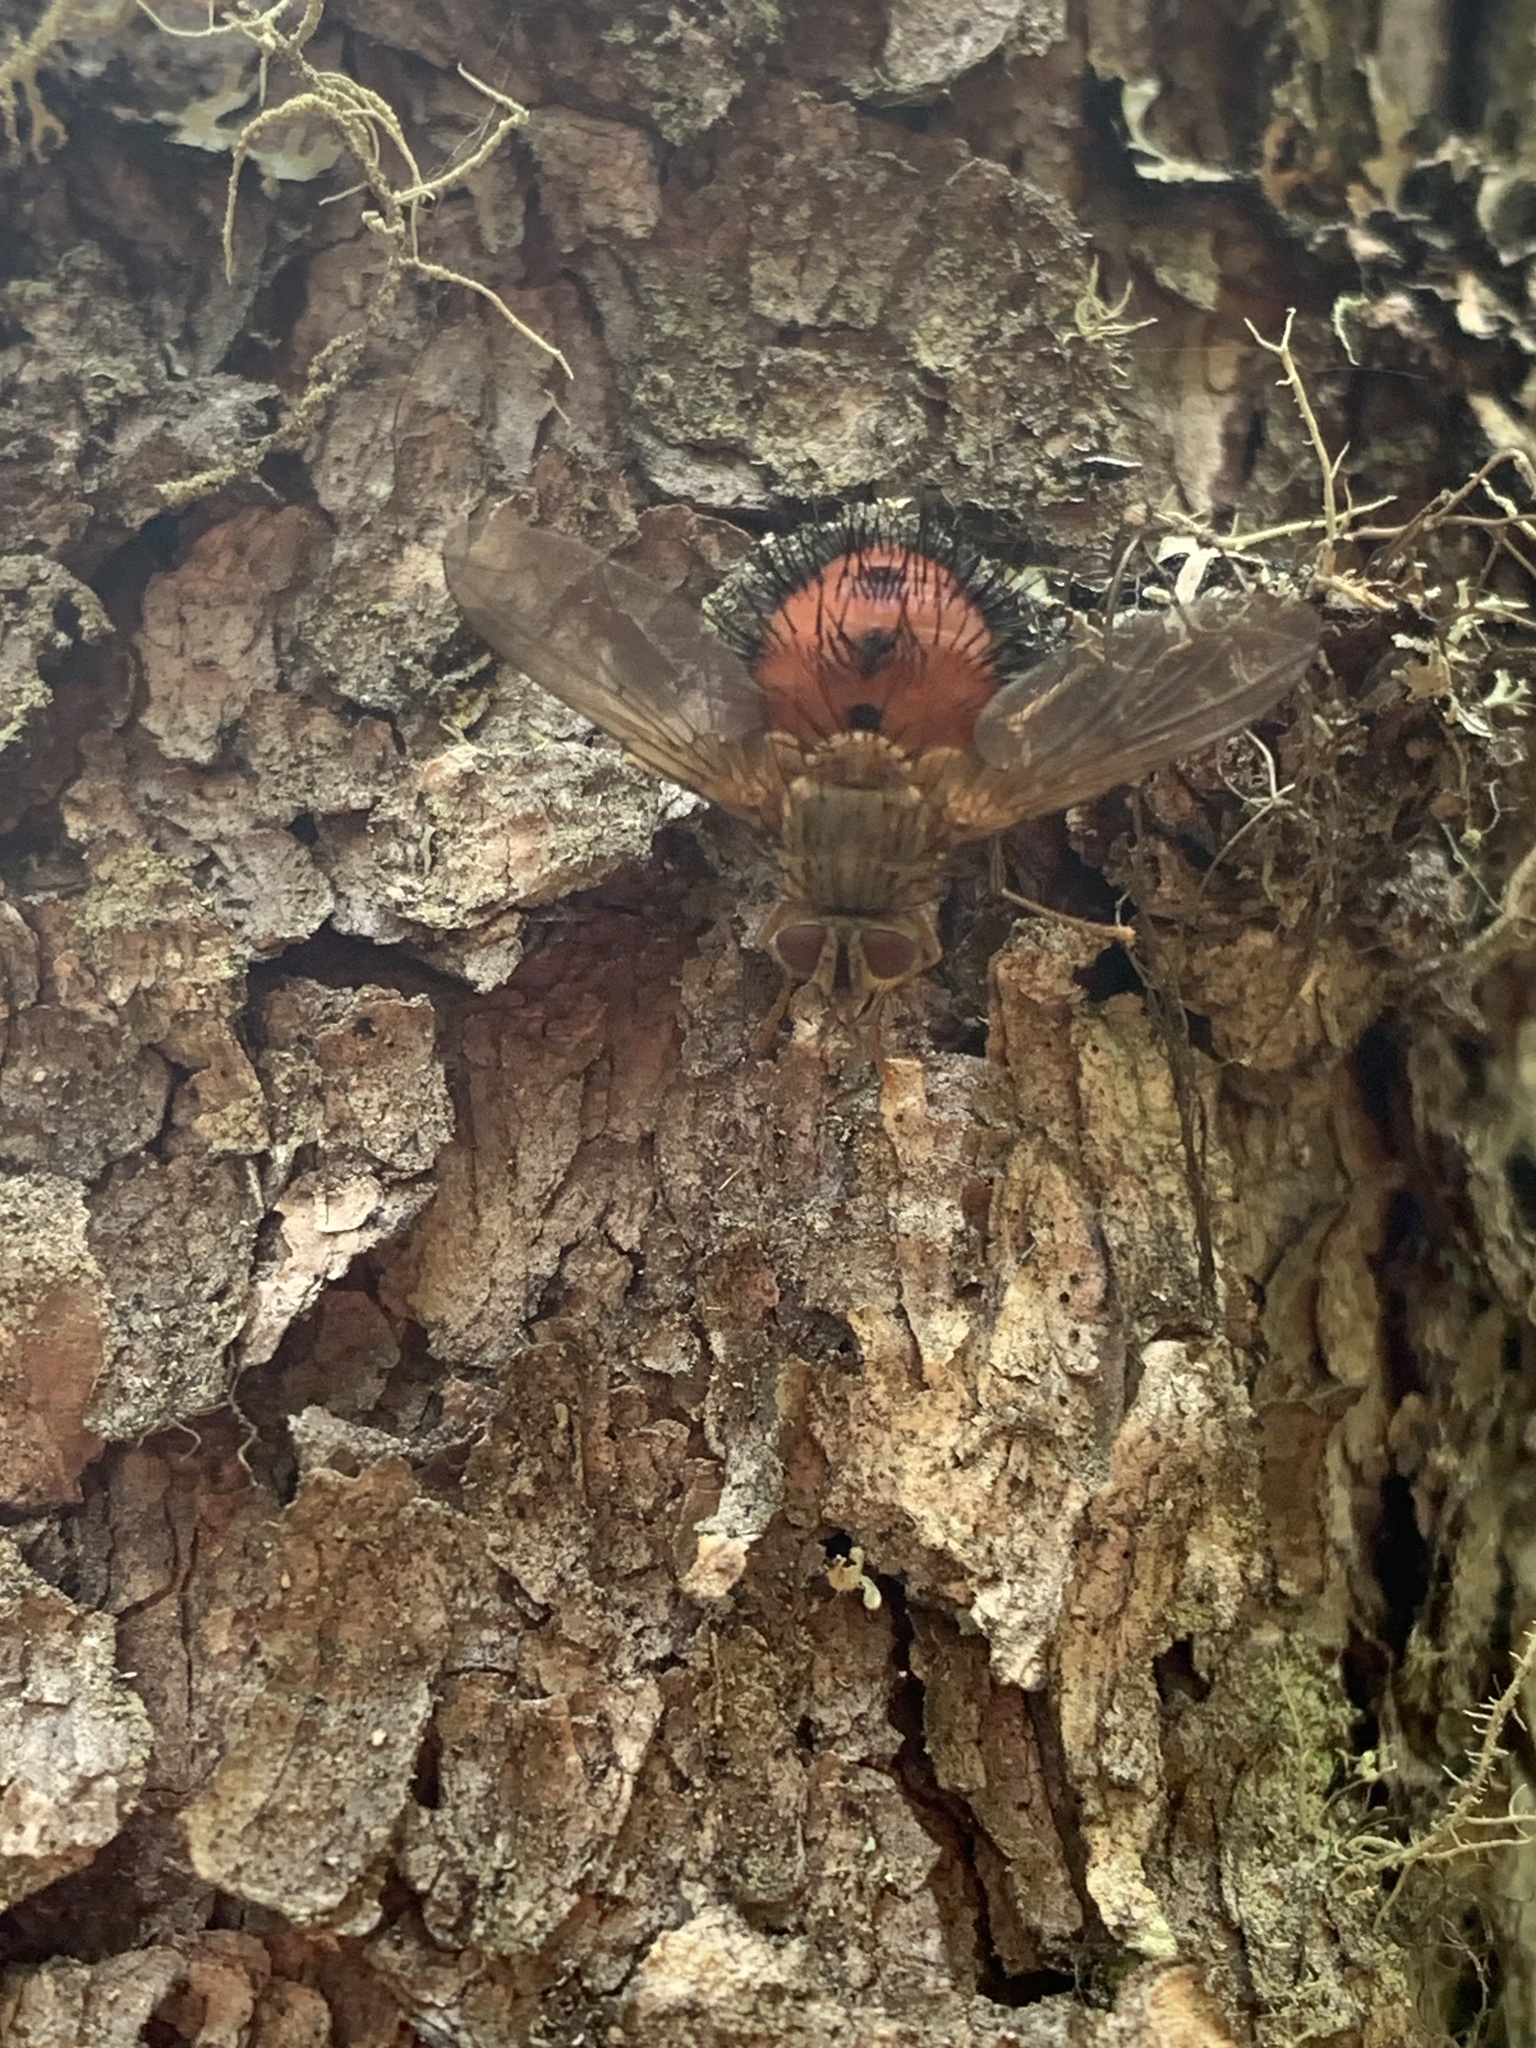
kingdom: Animalia
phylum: Arthropoda
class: Insecta
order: Diptera
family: Tachinidae
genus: Hystricia
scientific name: Hystricia abrupta
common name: Tomato bristle fly
